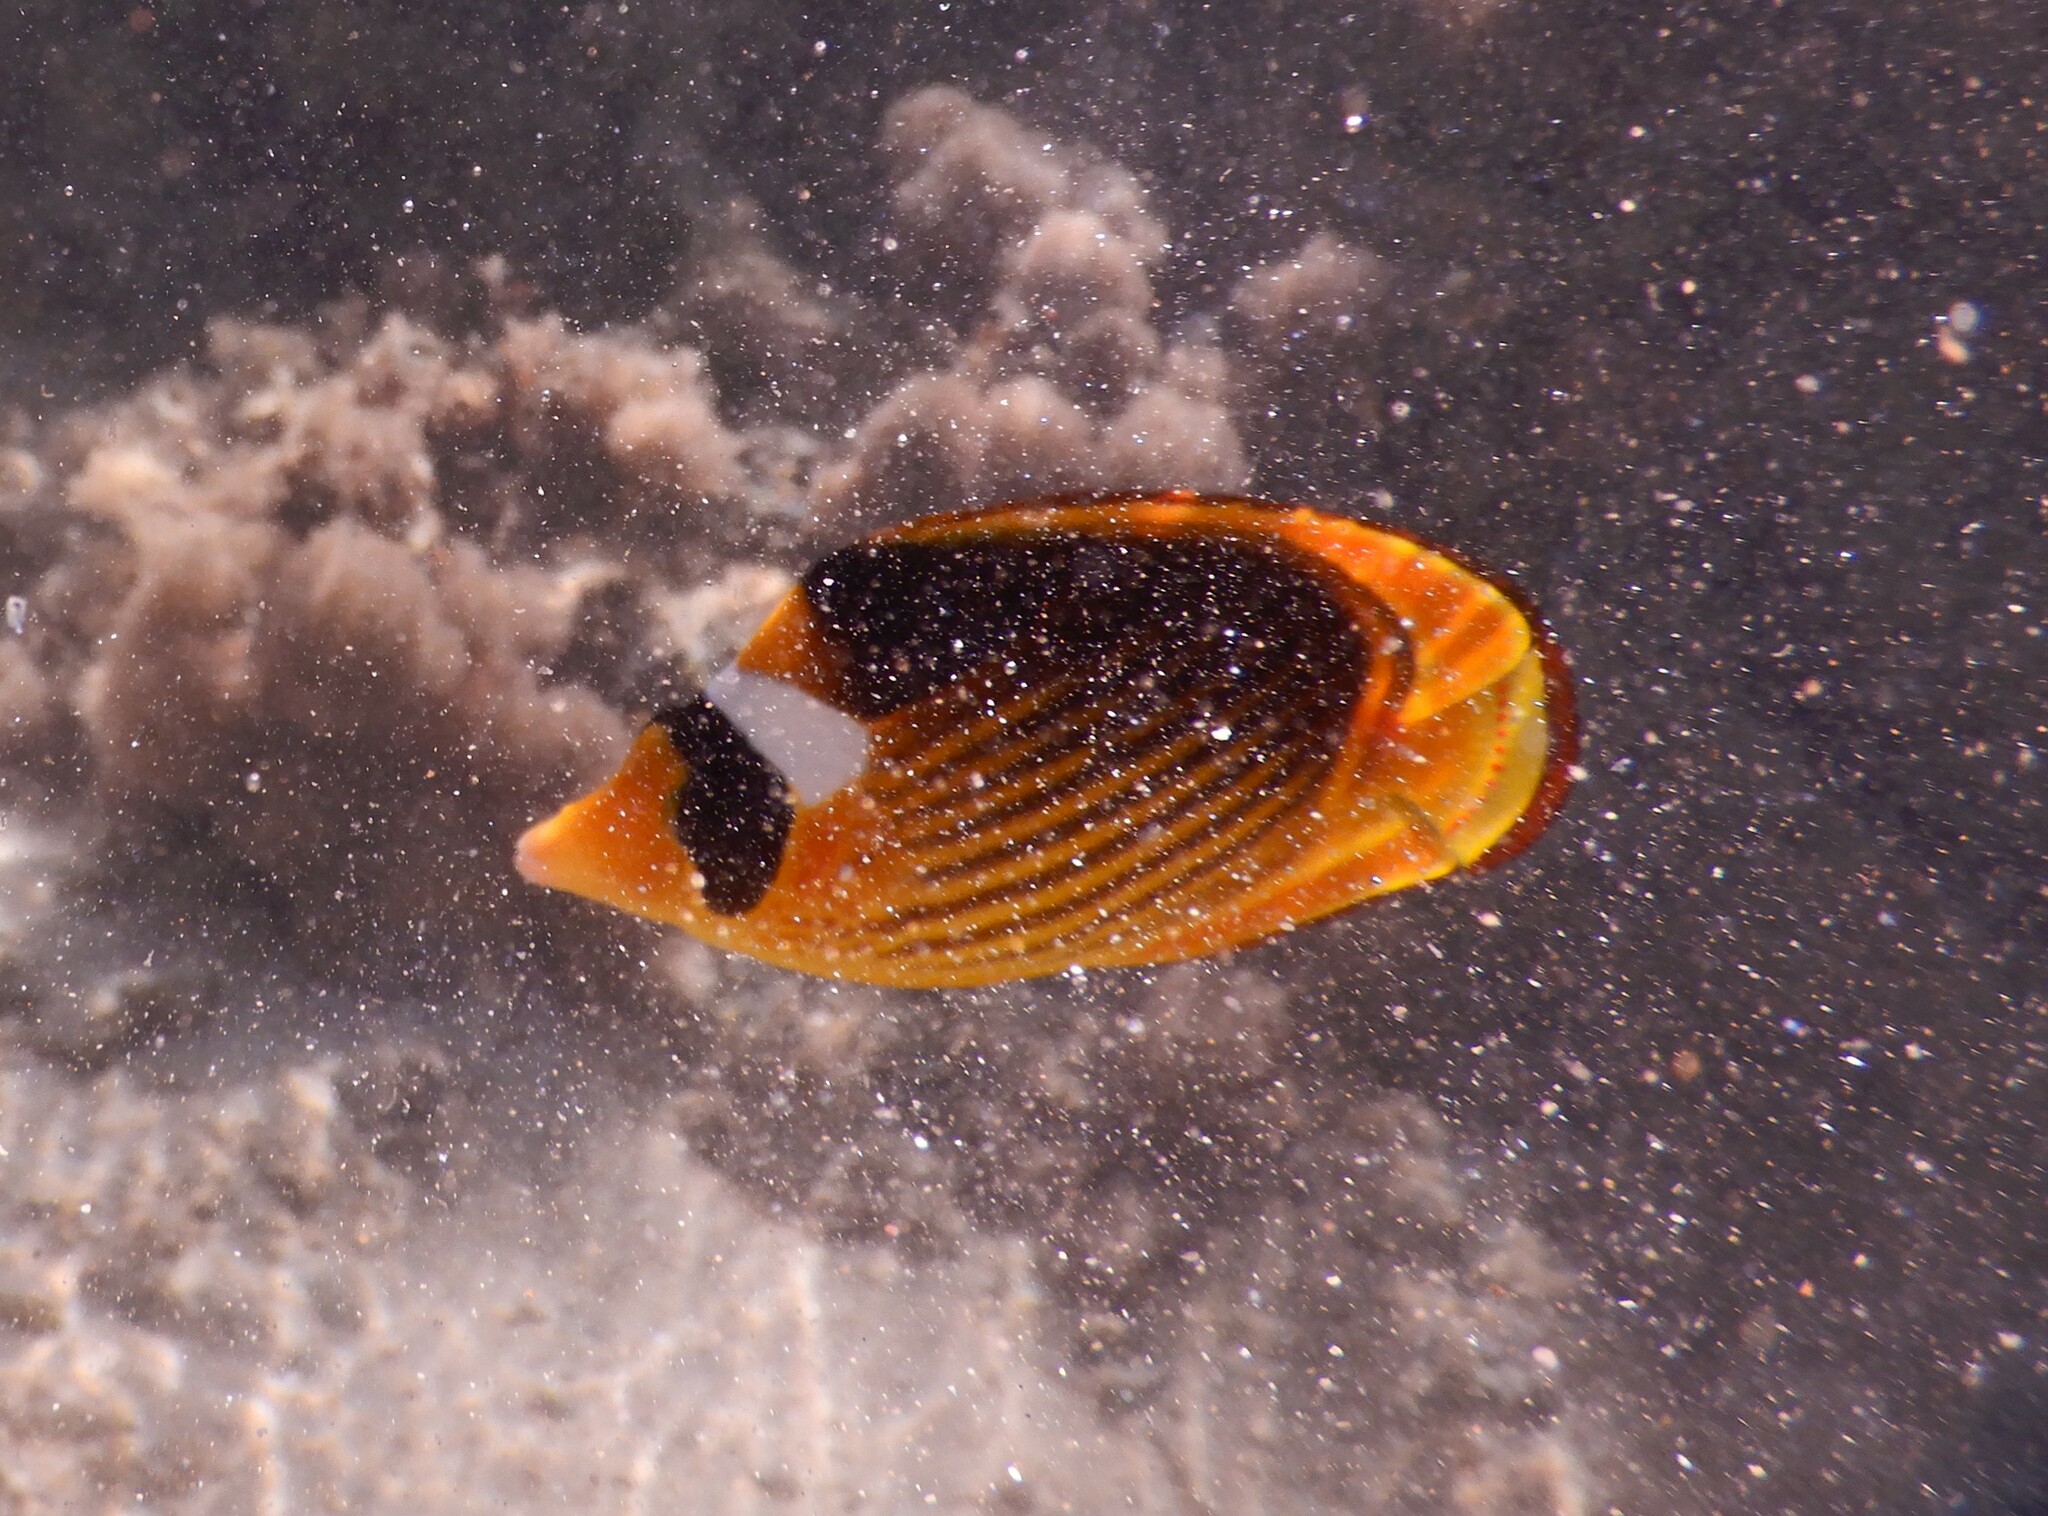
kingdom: Animalia
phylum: Chordata
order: Perciformes
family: Chaetodontidae
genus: Chaetodon
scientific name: Chaetodon fasciatus
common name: Diagonal butterflyfish
